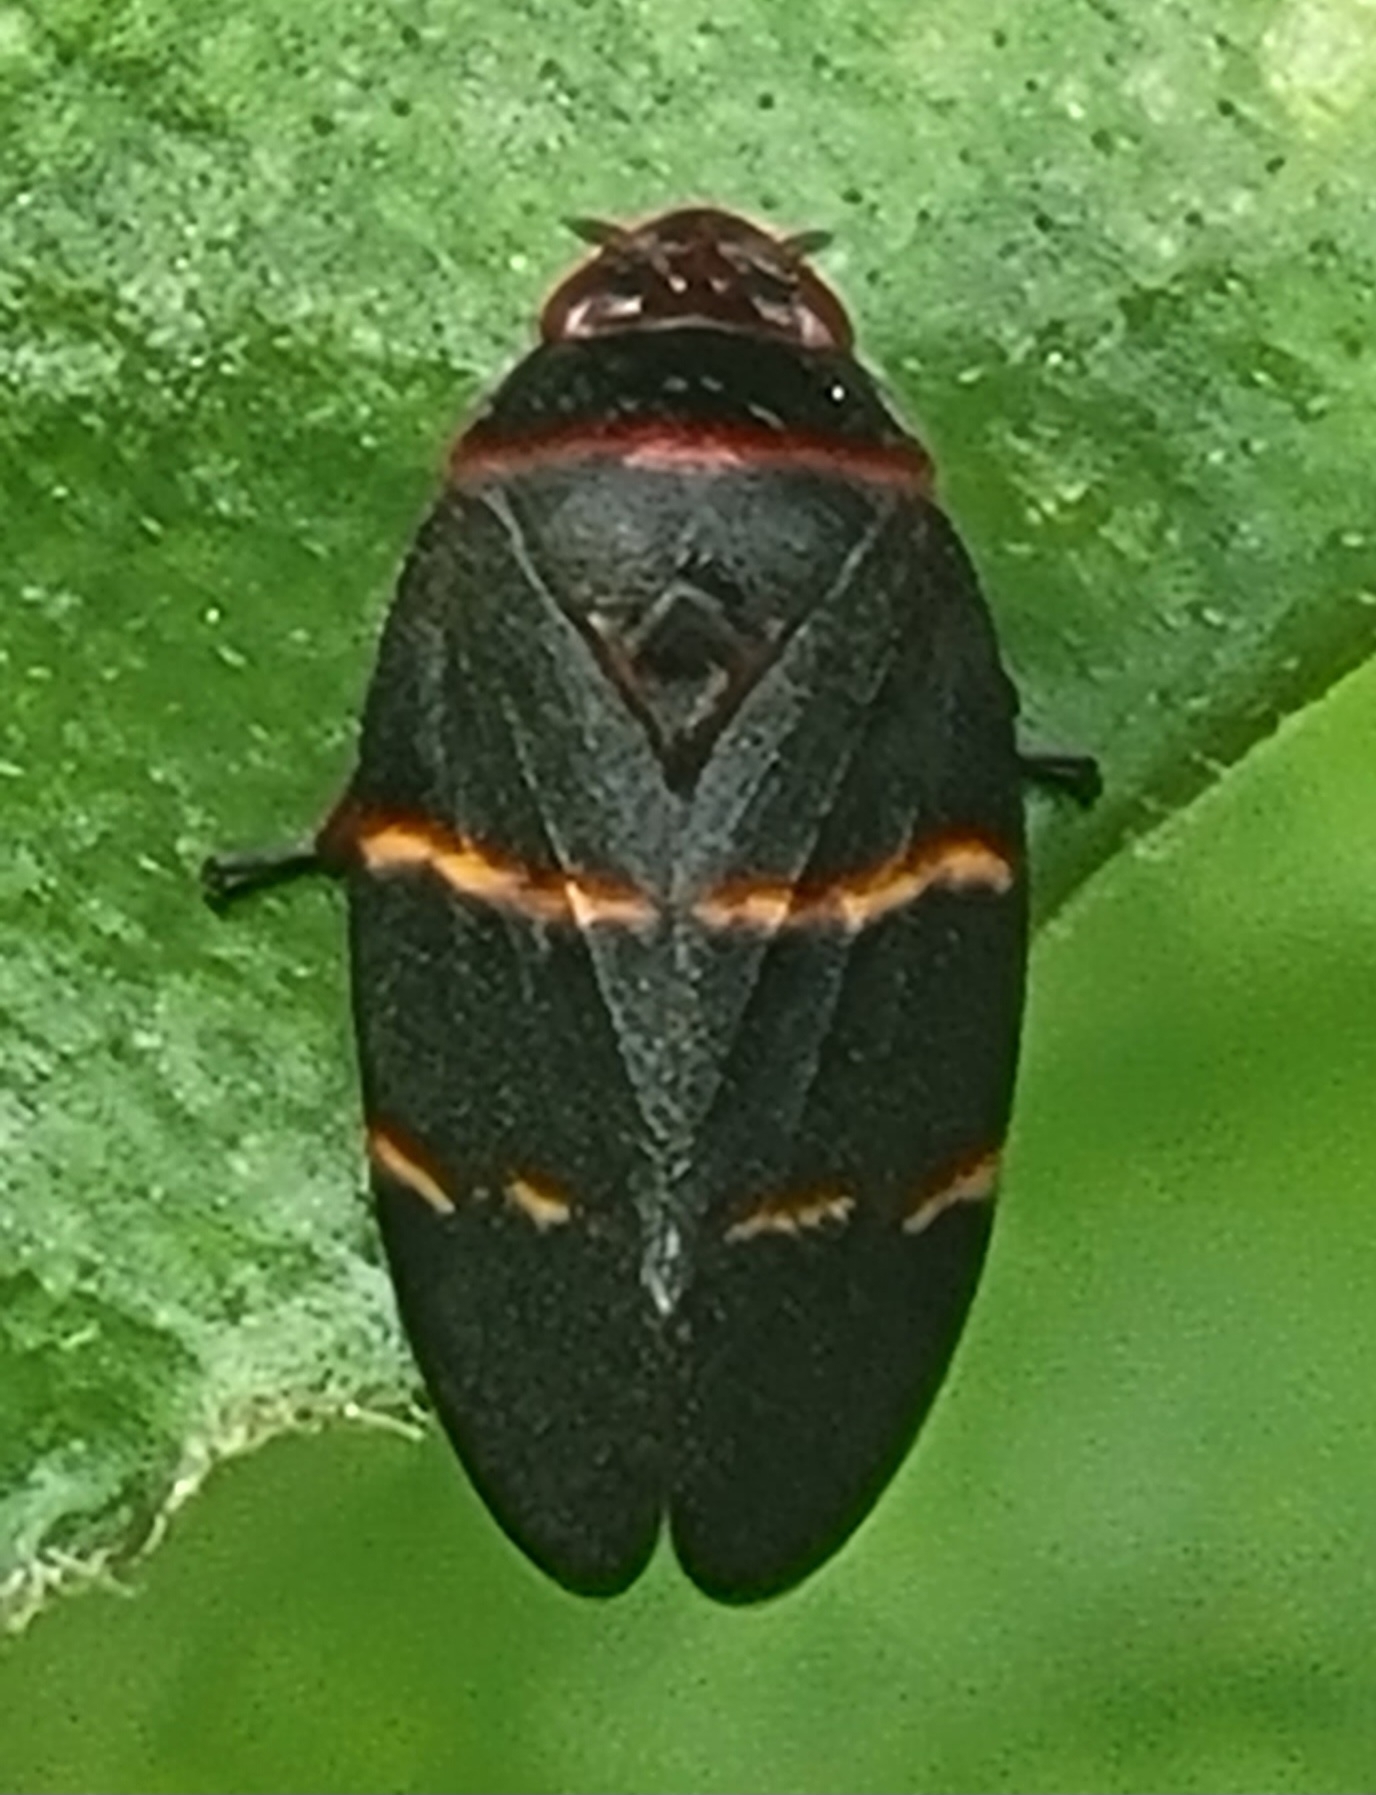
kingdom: Animalia
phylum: Arthropoda
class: Insecta
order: Hemiptera
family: Cercopidae
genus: Prosapia
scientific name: Prosapia bicincta
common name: Twolined spittlebug
